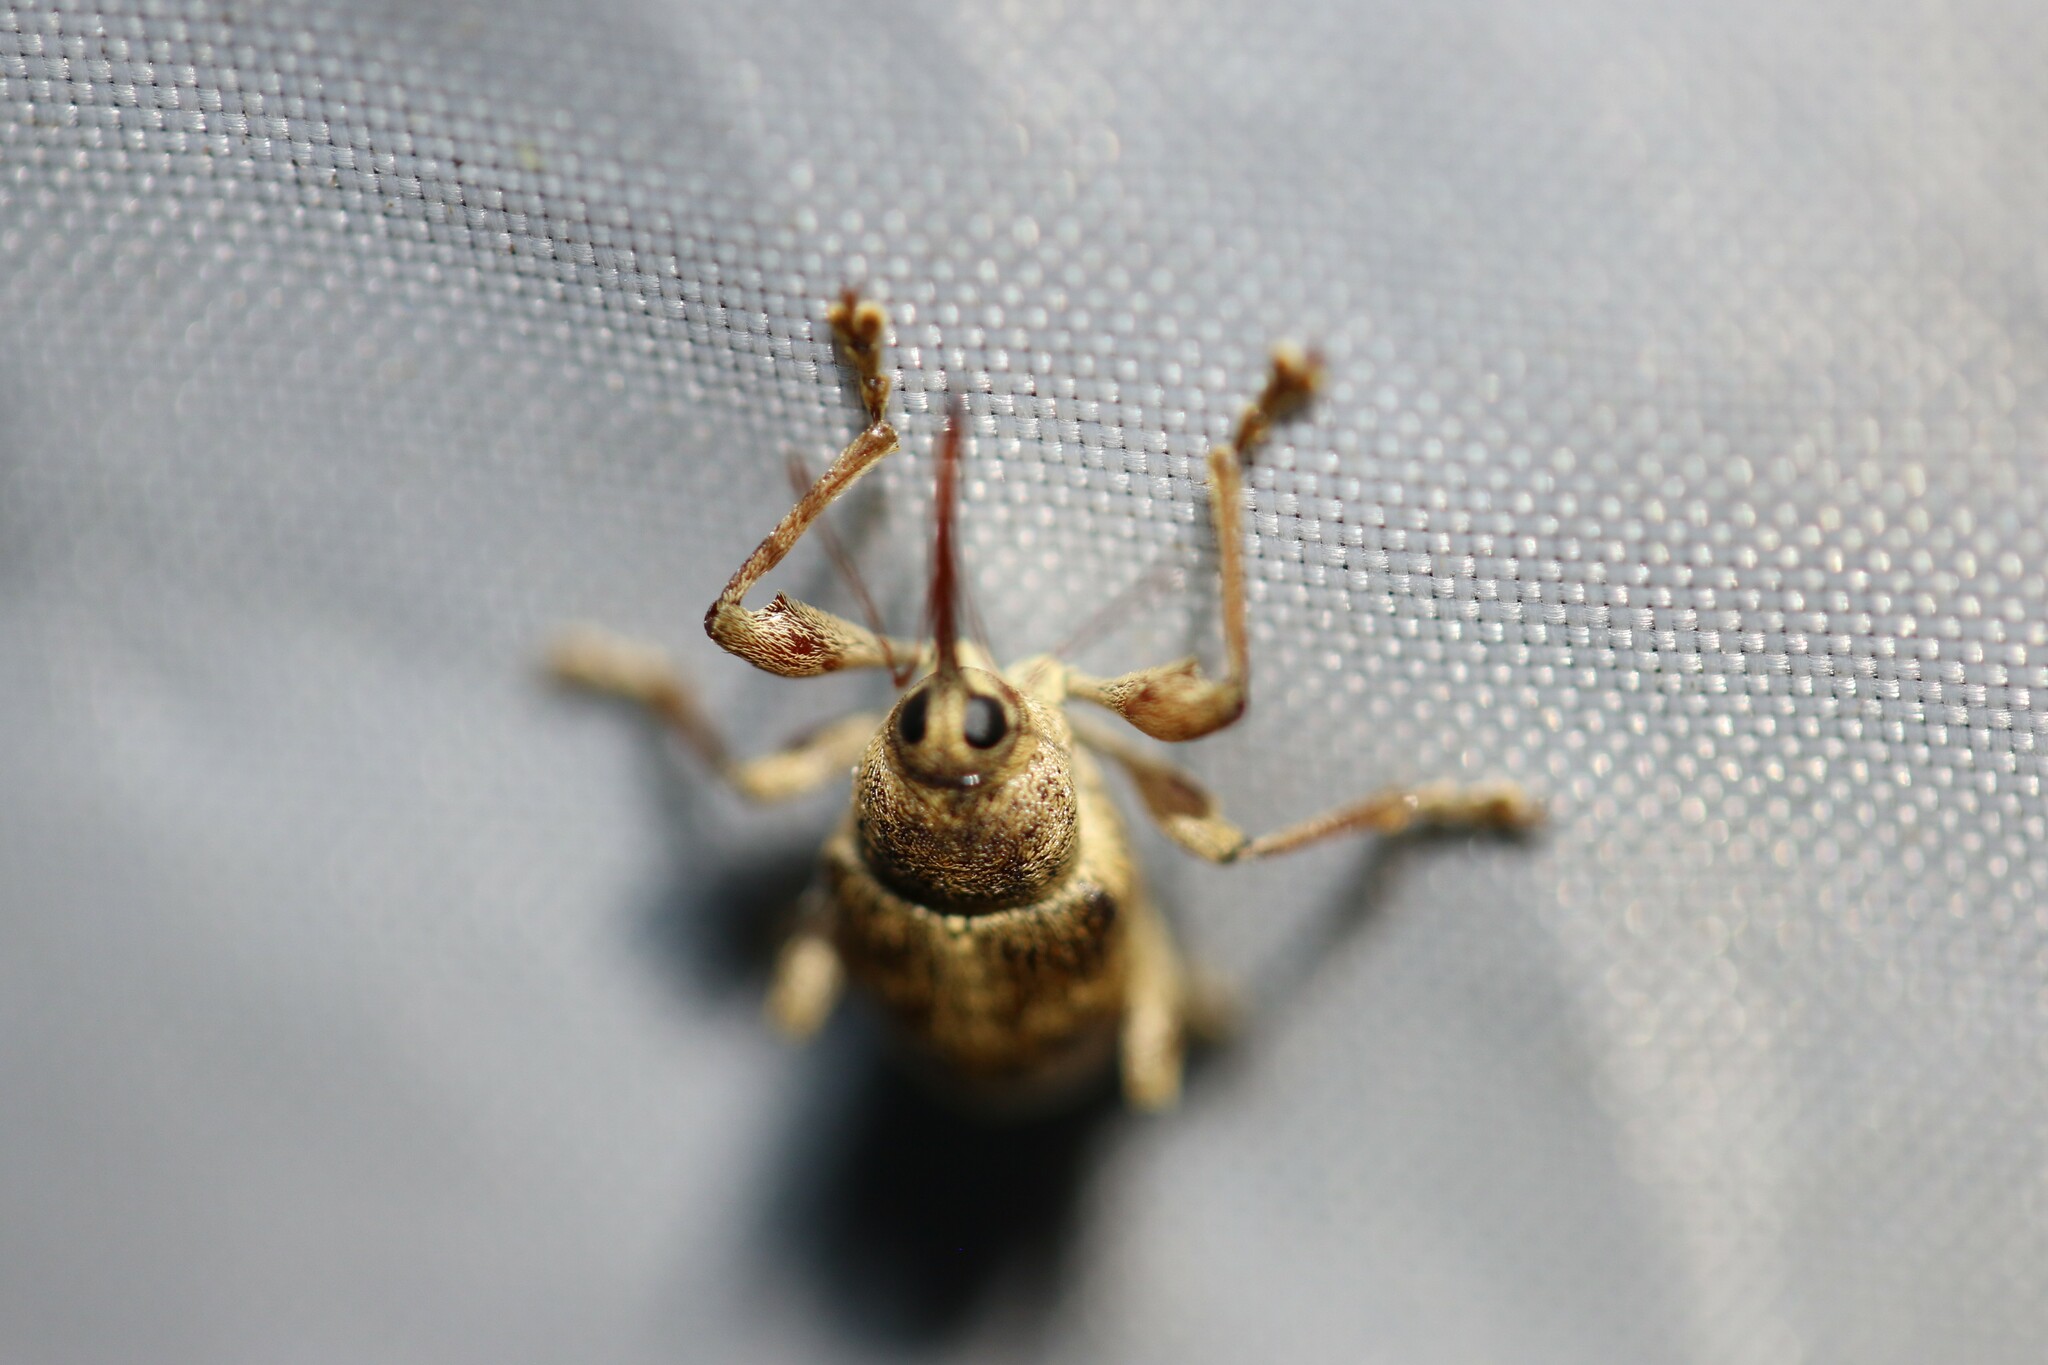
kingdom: Animalia
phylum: Arthropoda
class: Insecta
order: Coleoptera
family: Curculionidae
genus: Curculio
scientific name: Curculio elephas
